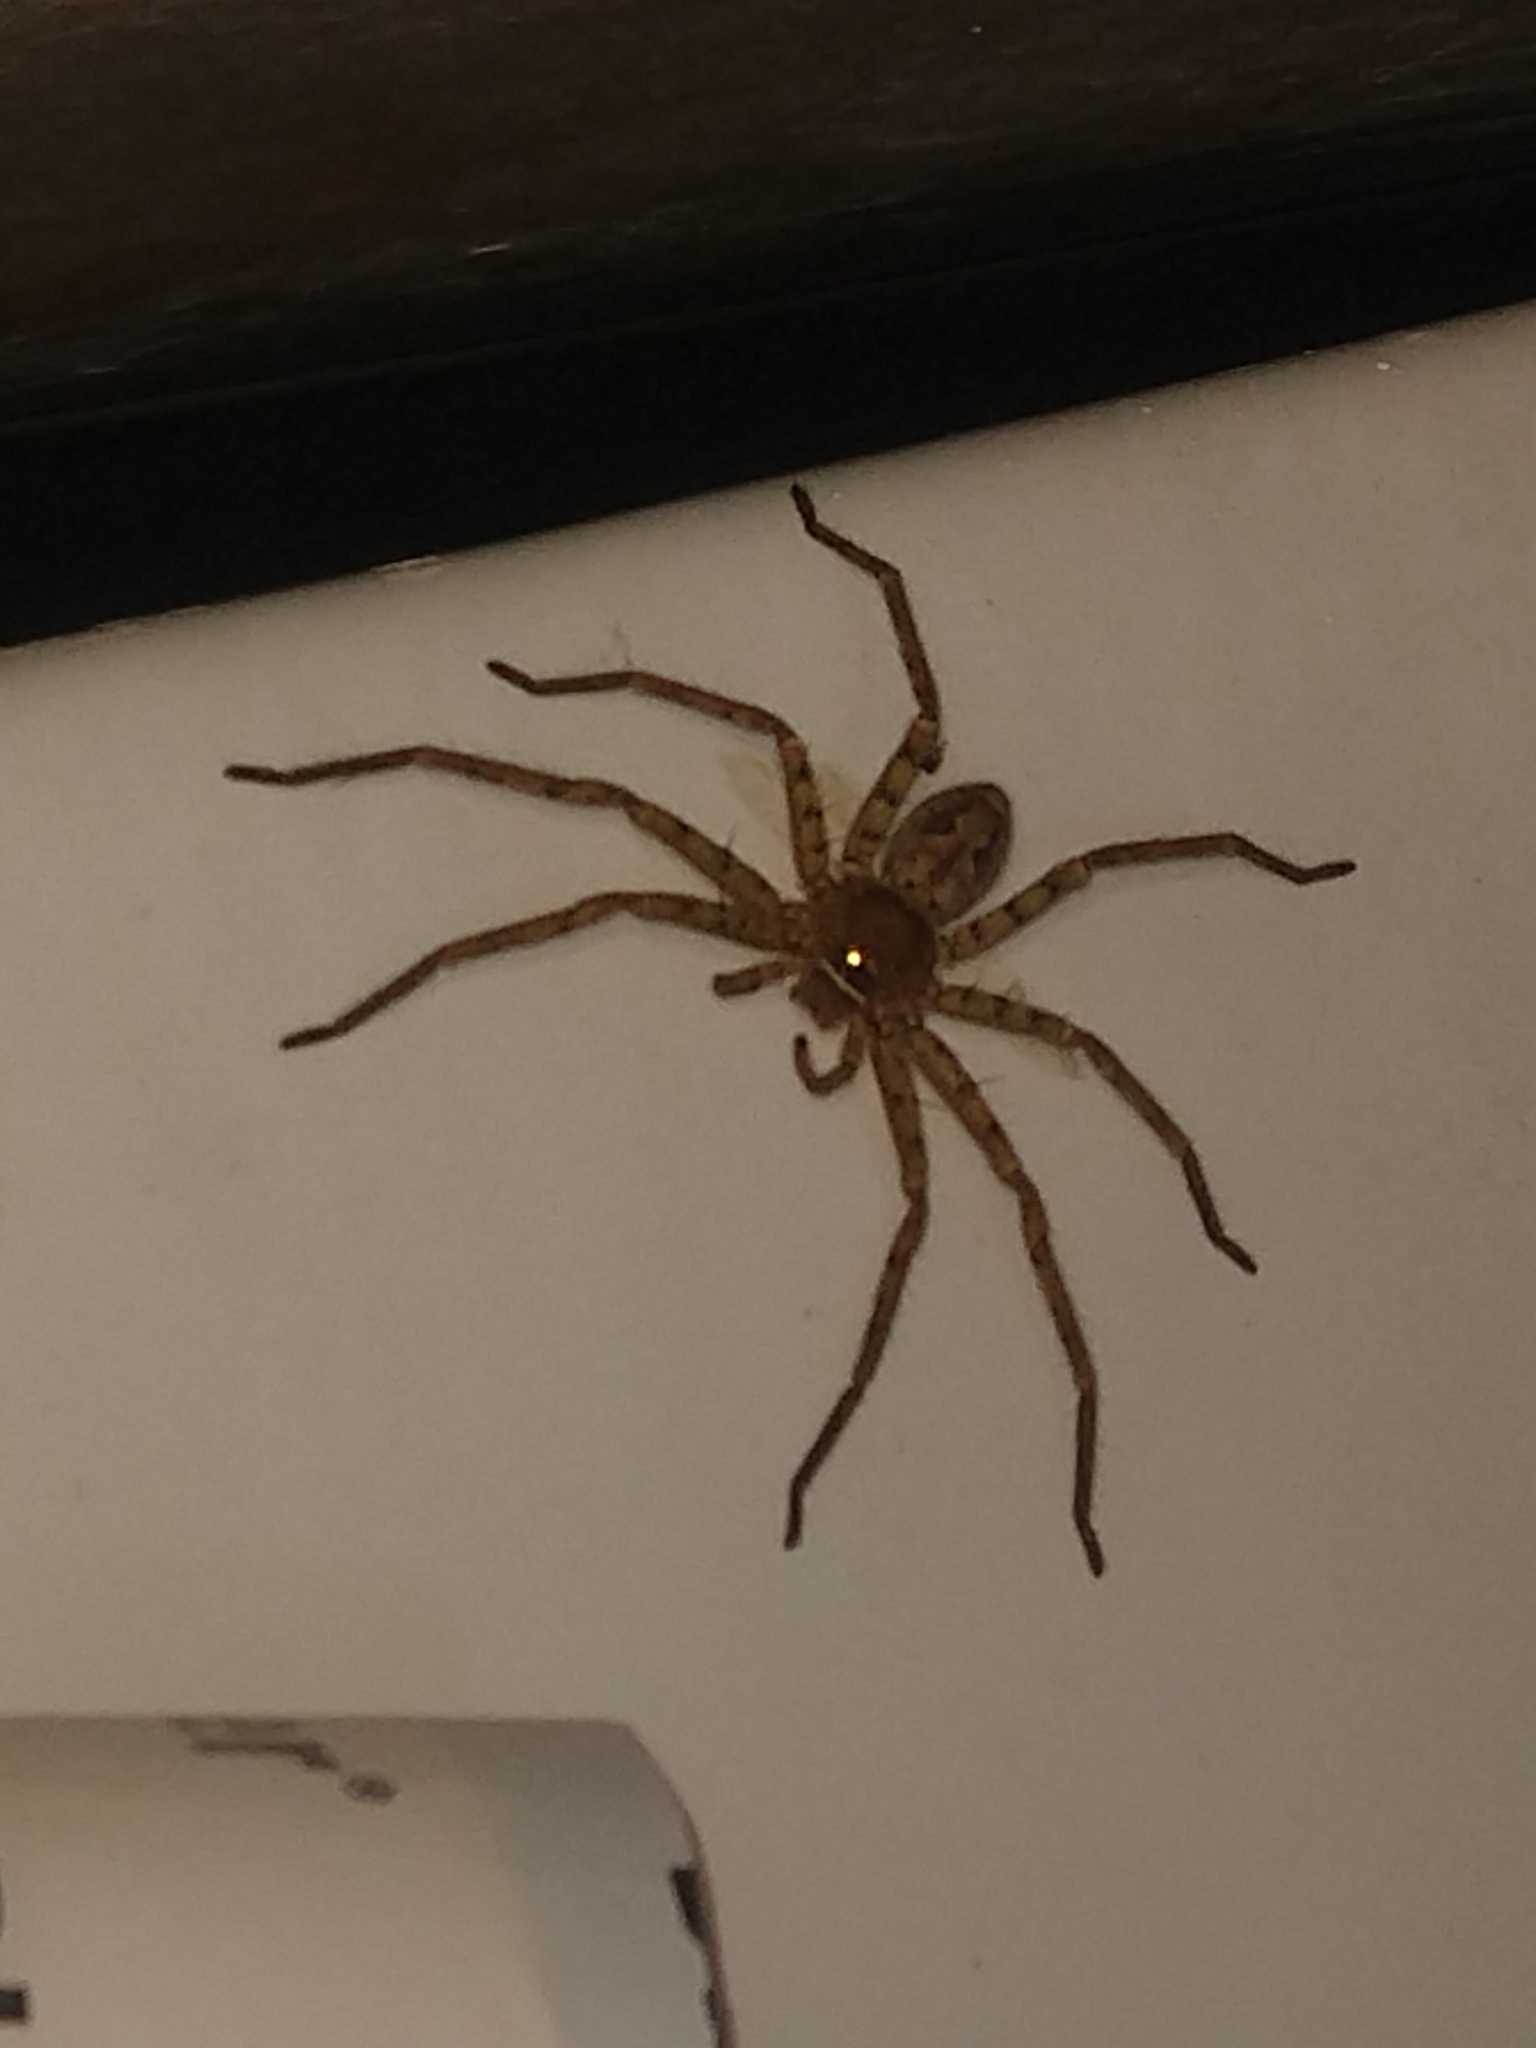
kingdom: Animalia
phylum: Arthropoda
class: Arachnida
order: Araneae
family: Sparassidae
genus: Heteropoda
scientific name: Heteropoda venatoria
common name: Huntsman spider
